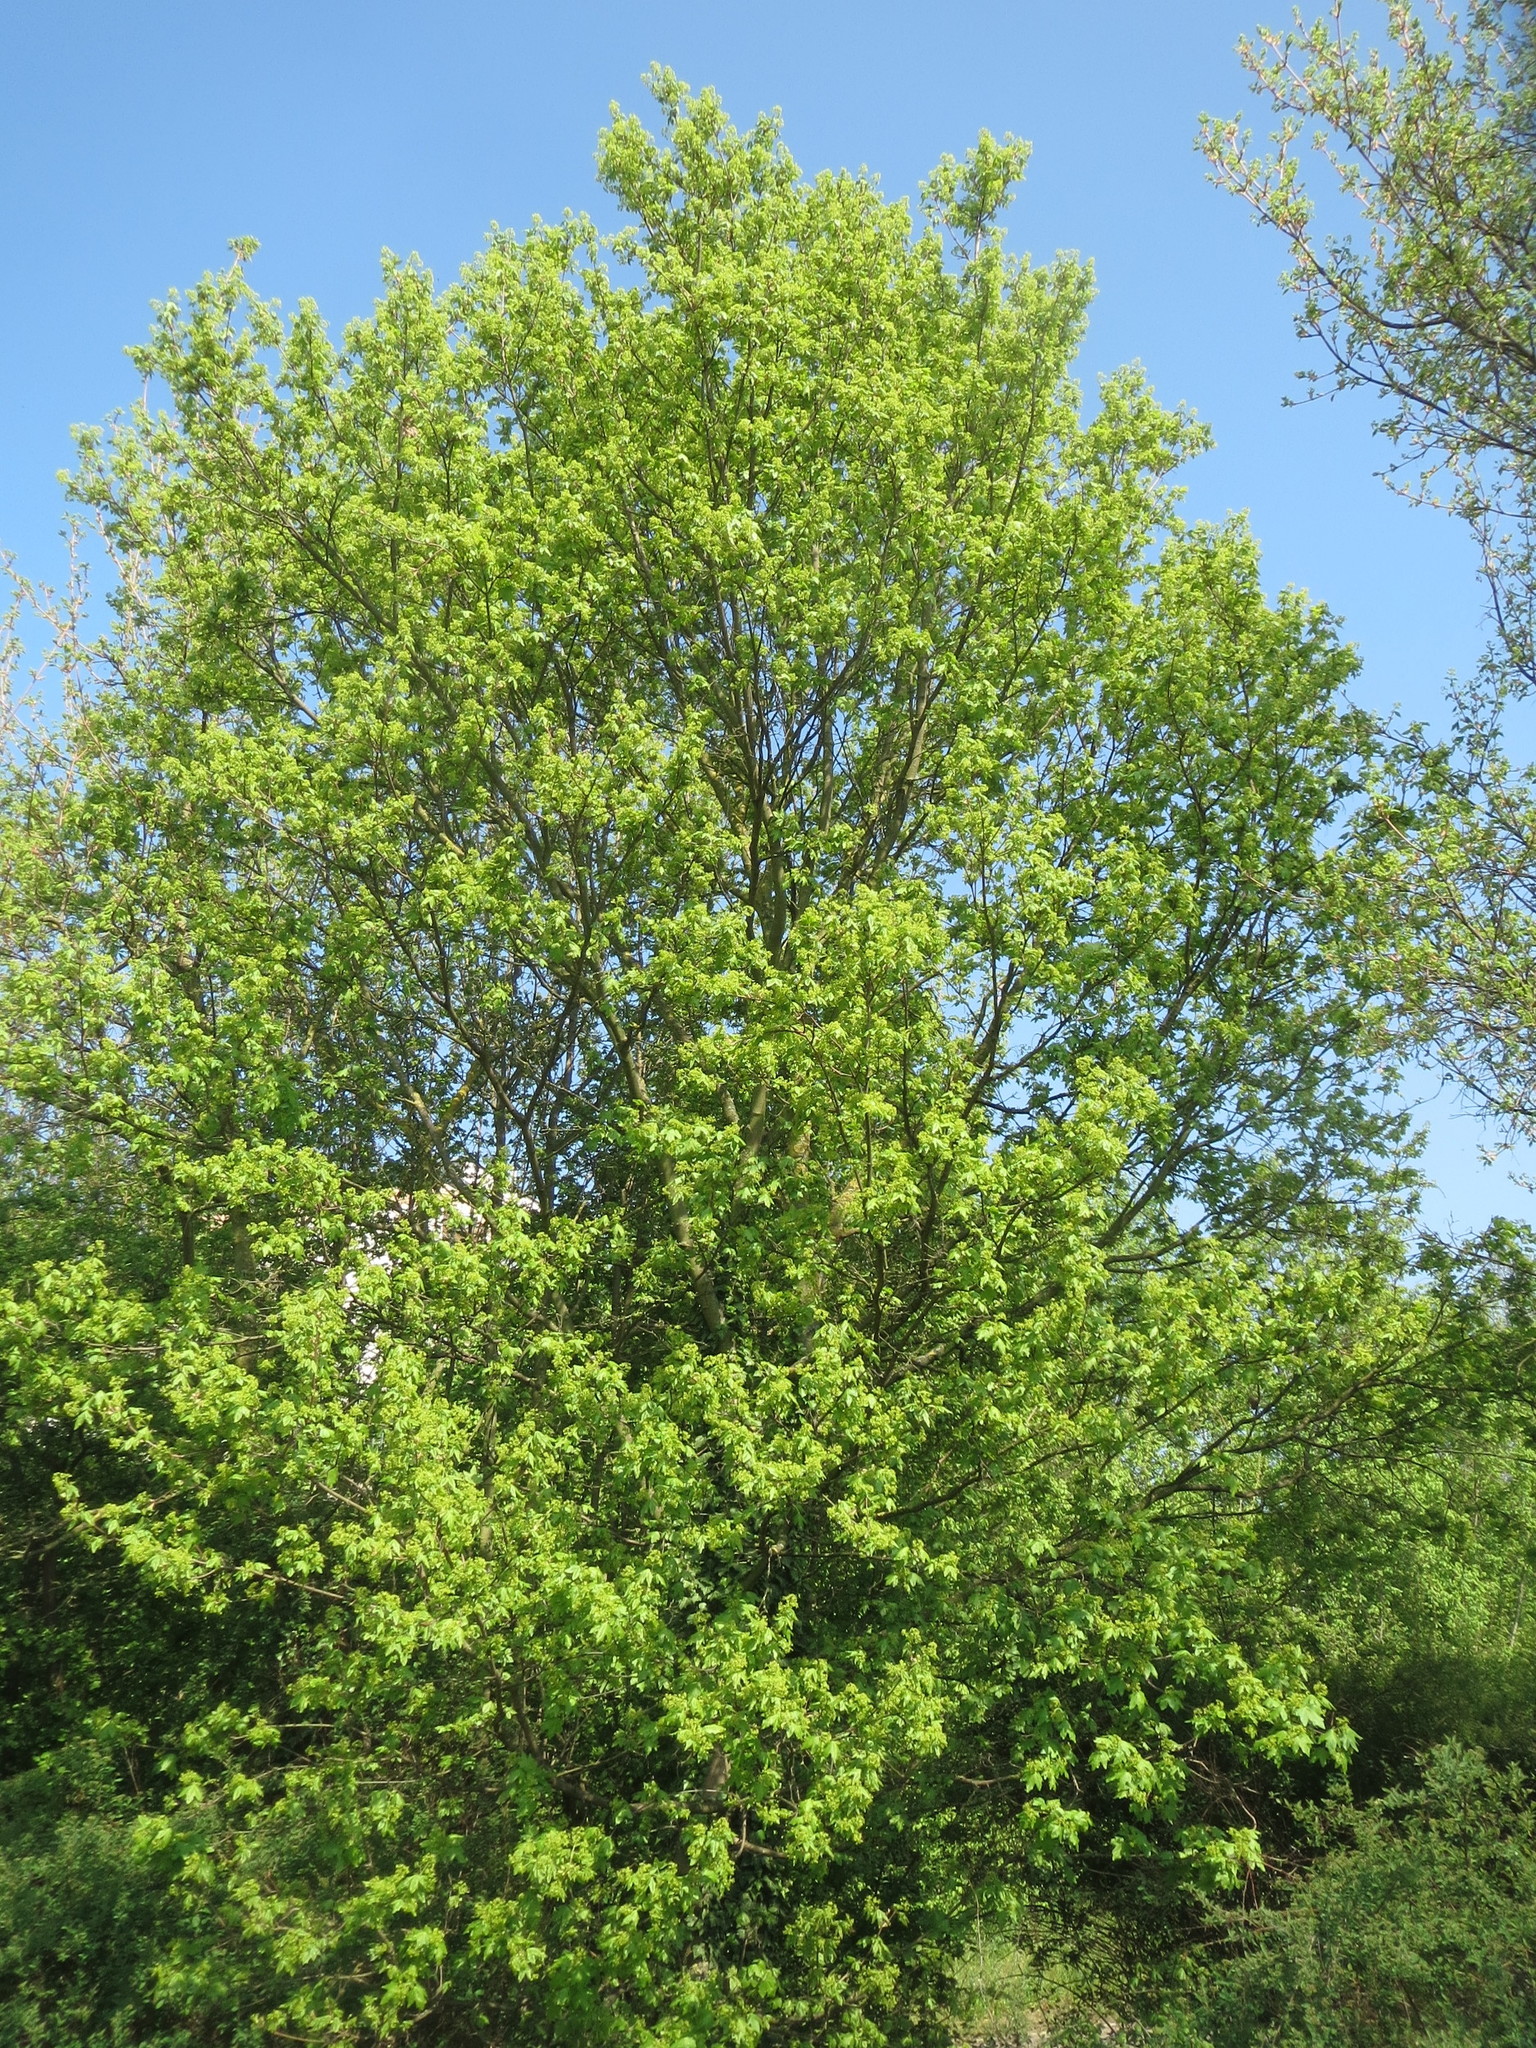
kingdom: Plantae
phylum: Tracheophyta
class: Magnoliopsida
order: Sapindales
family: Sapindaceae
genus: Acer
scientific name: Acer campestre
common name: Field maple
